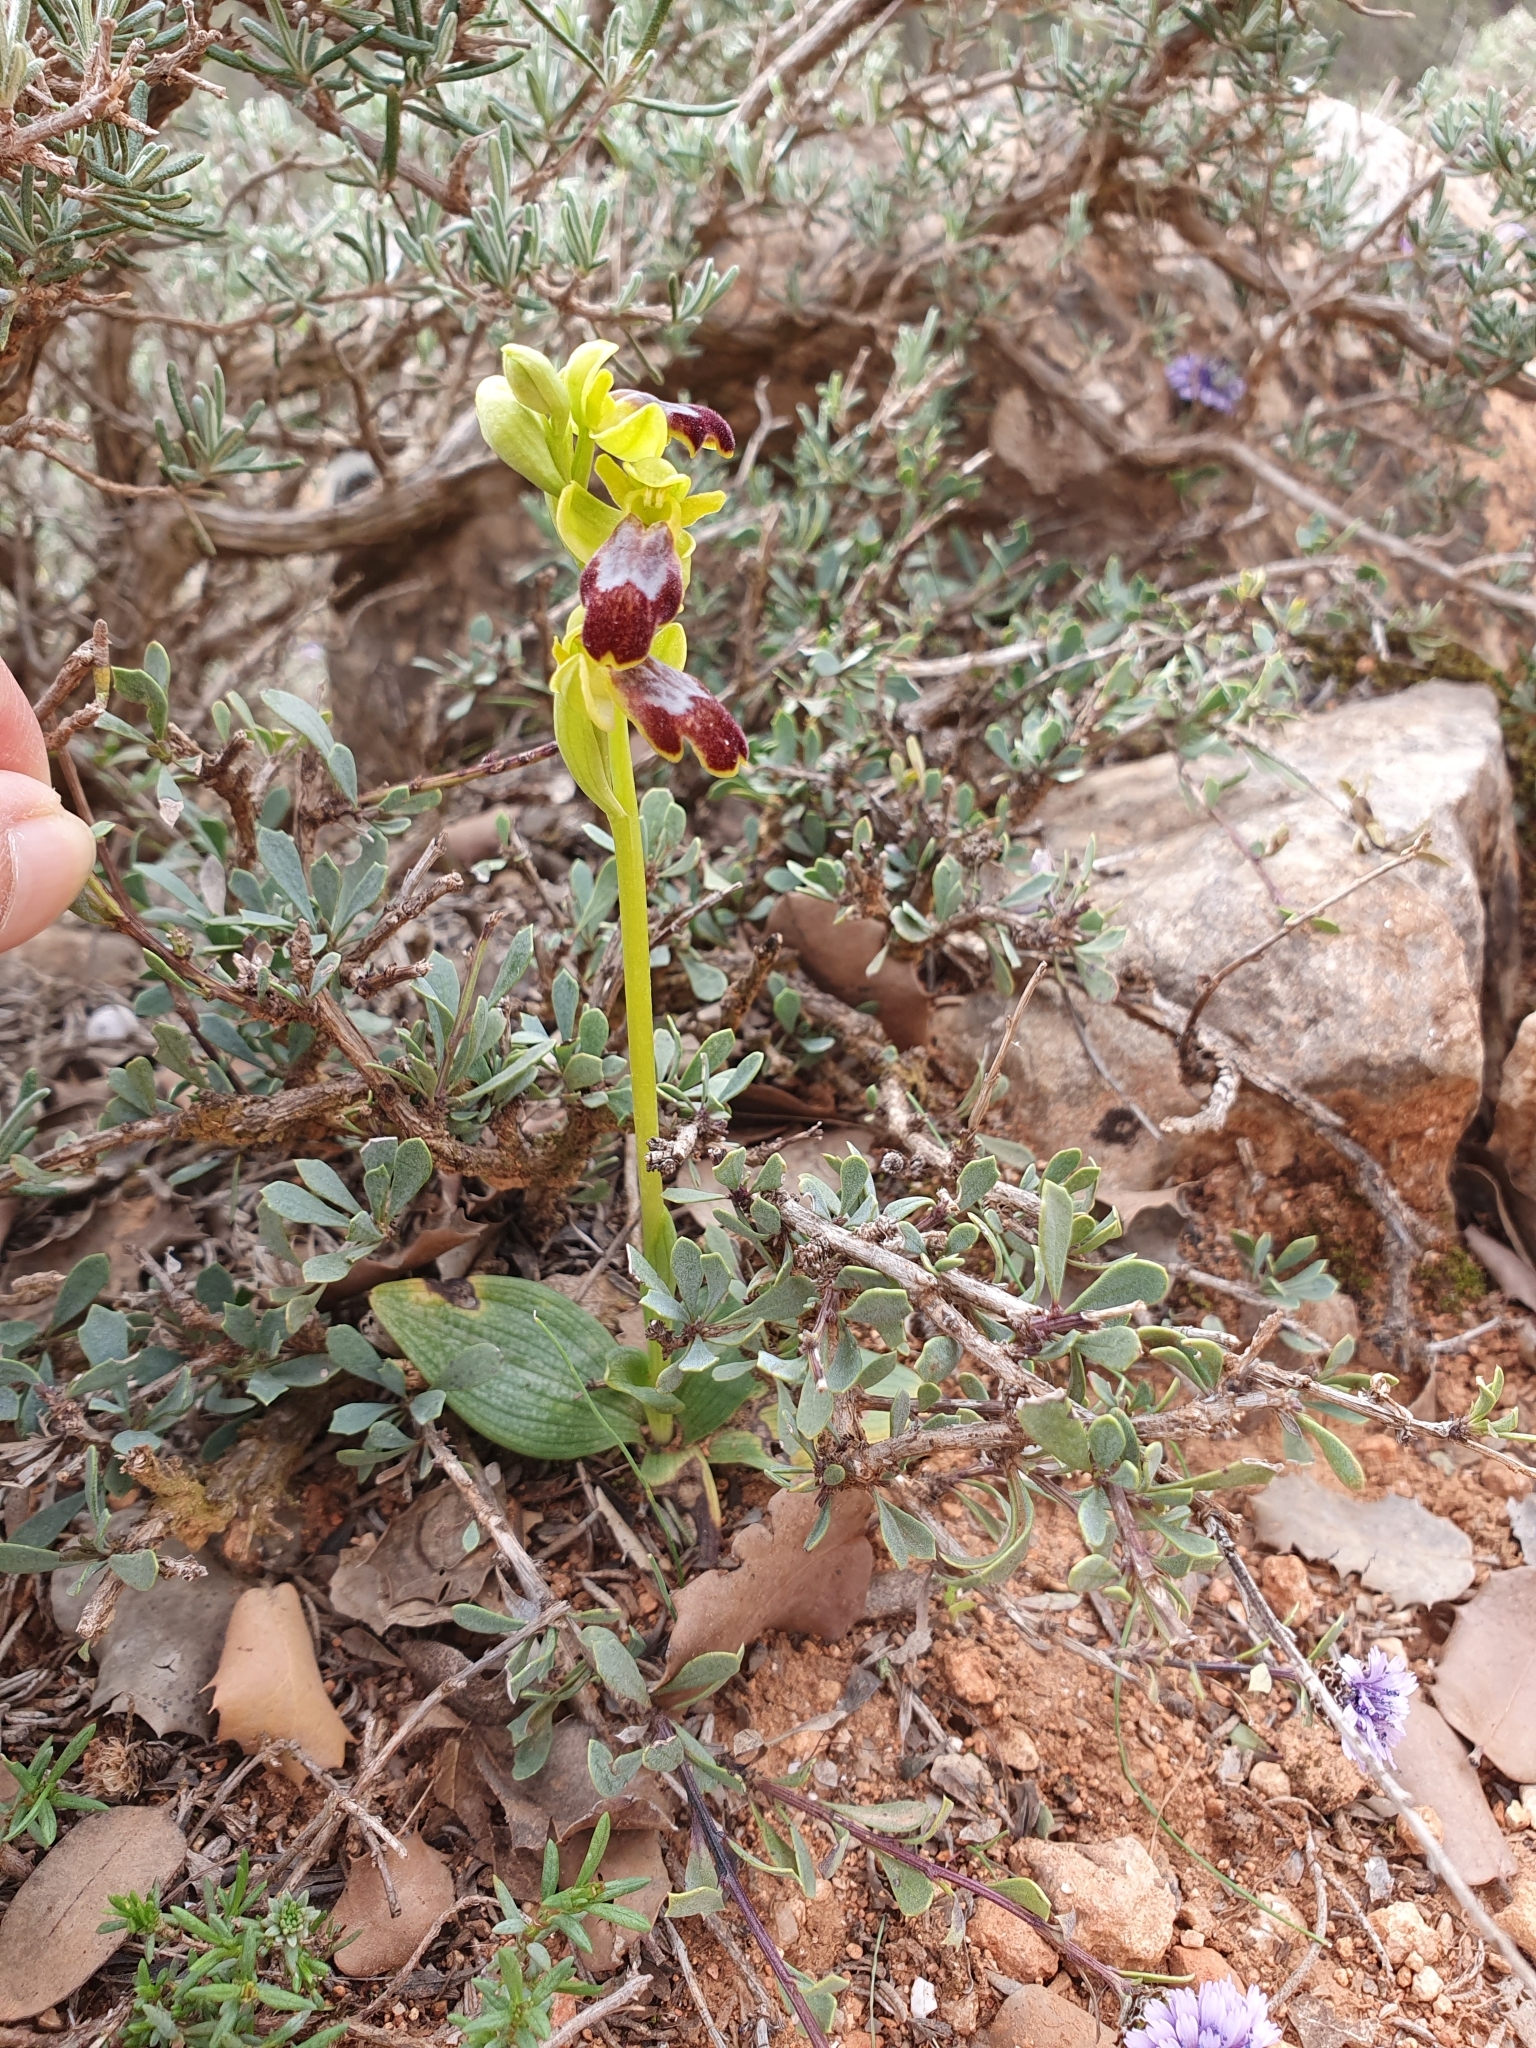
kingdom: Plantae
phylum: Tracheophyta
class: Liliopsida
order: Asparagales
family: Orchidaceae
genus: Ophrys
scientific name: Ophrys fusca
